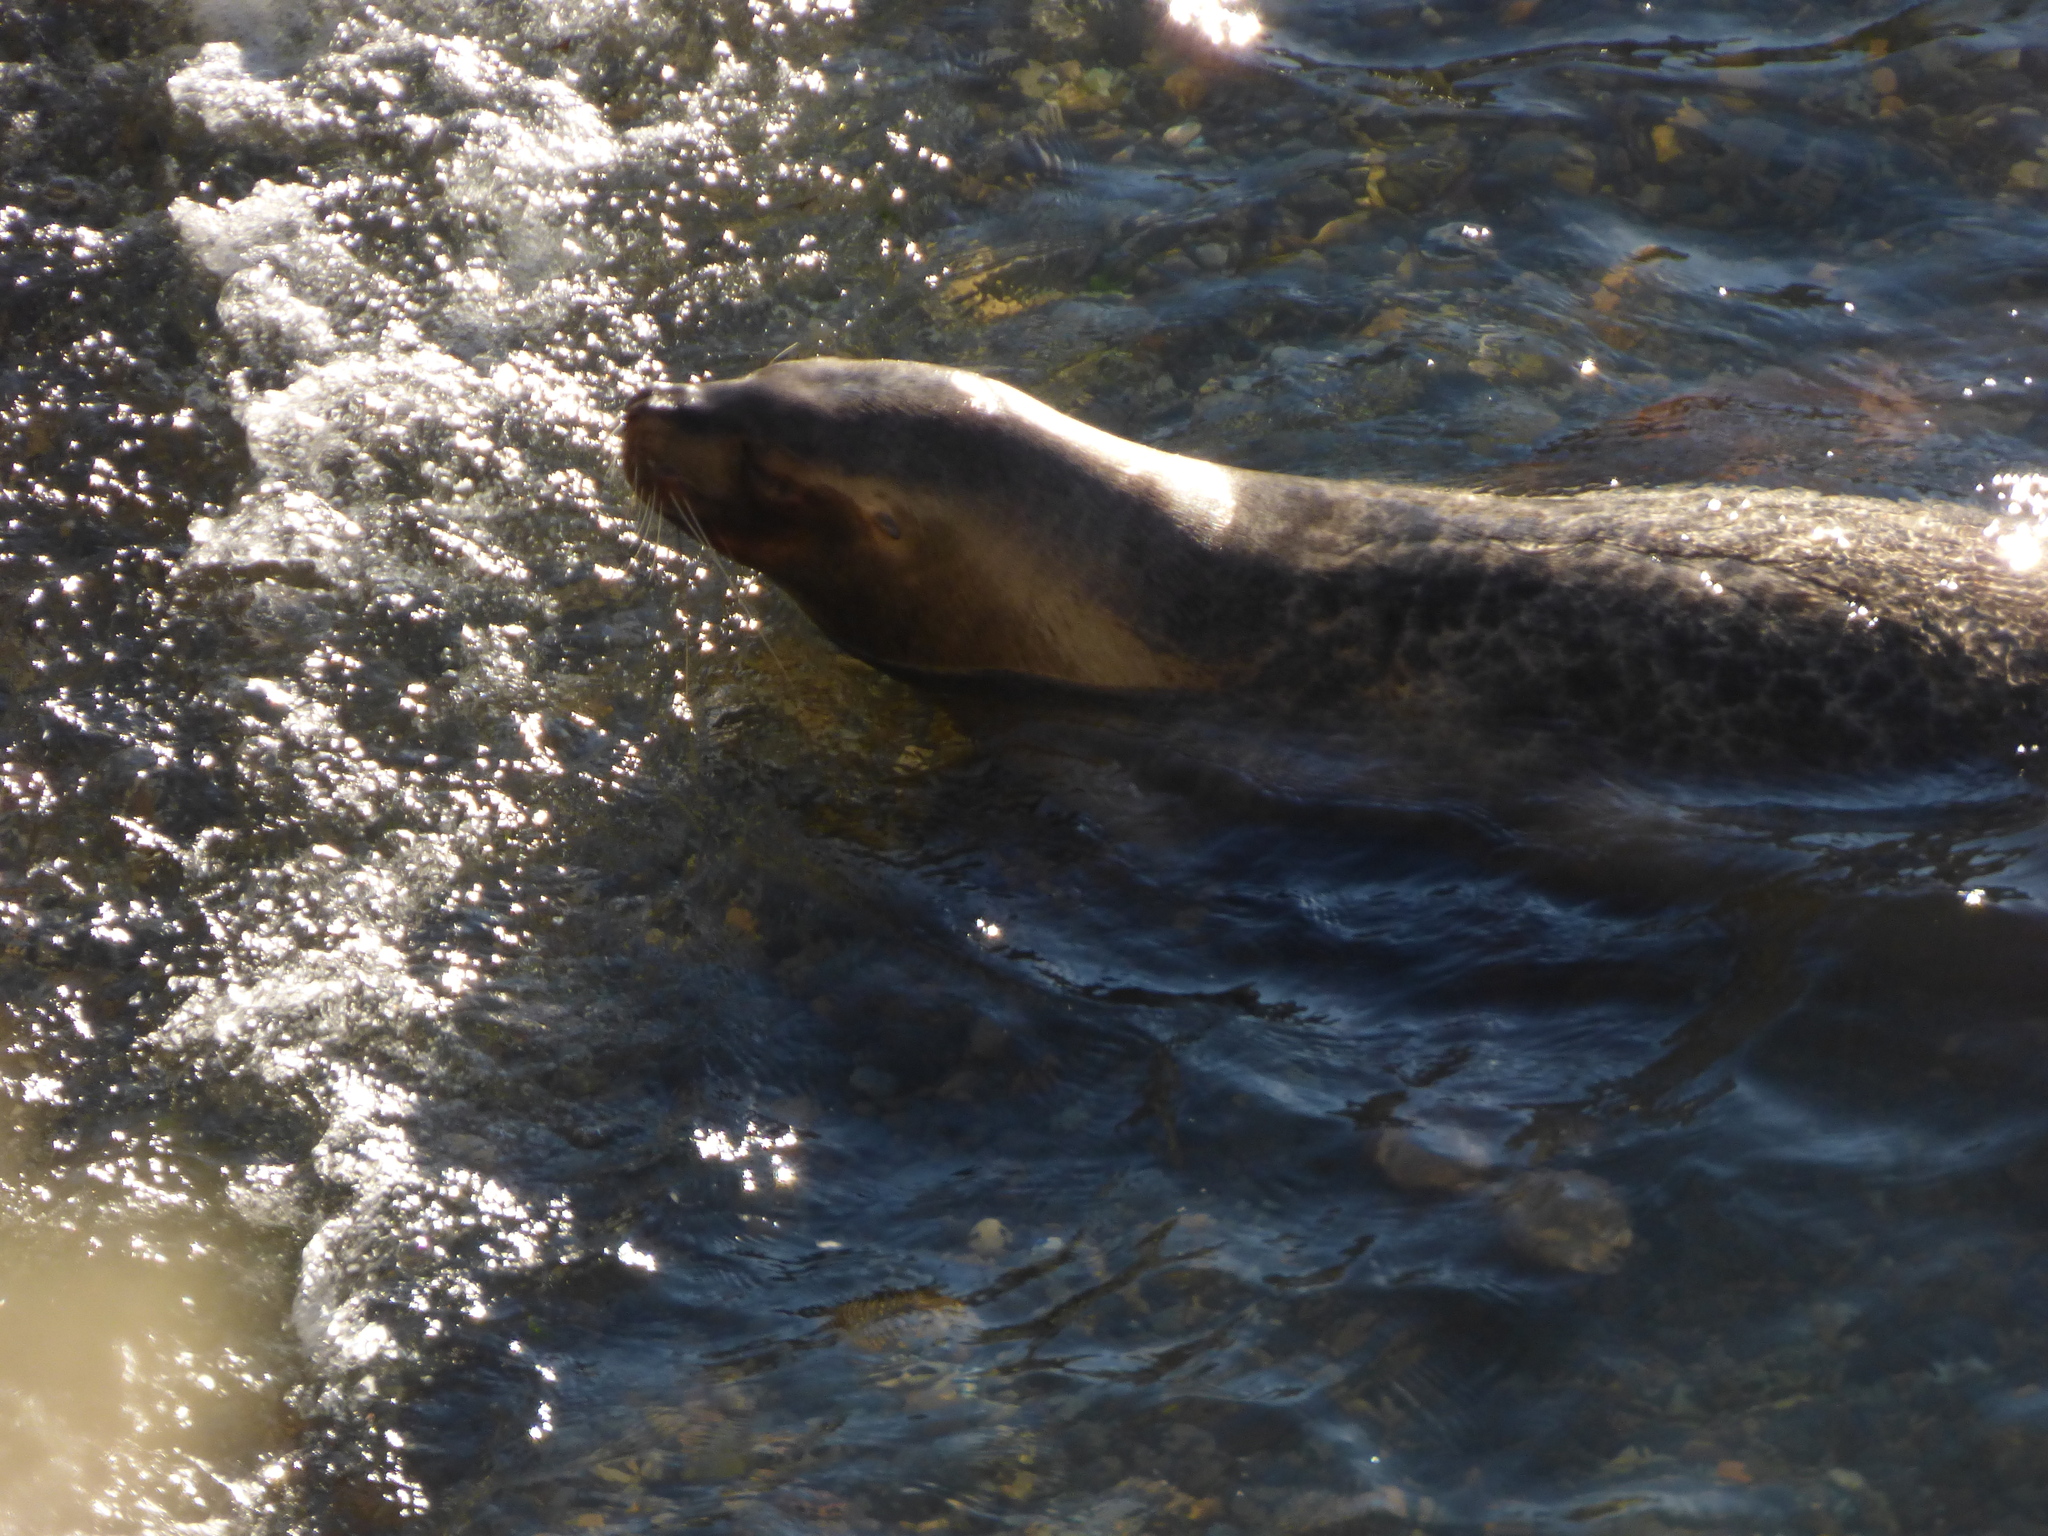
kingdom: Animalia
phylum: Chordata
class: Mammalia
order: Carnivora
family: Otariidae
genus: Otaria
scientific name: Otaria byronia
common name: South american sea lion
